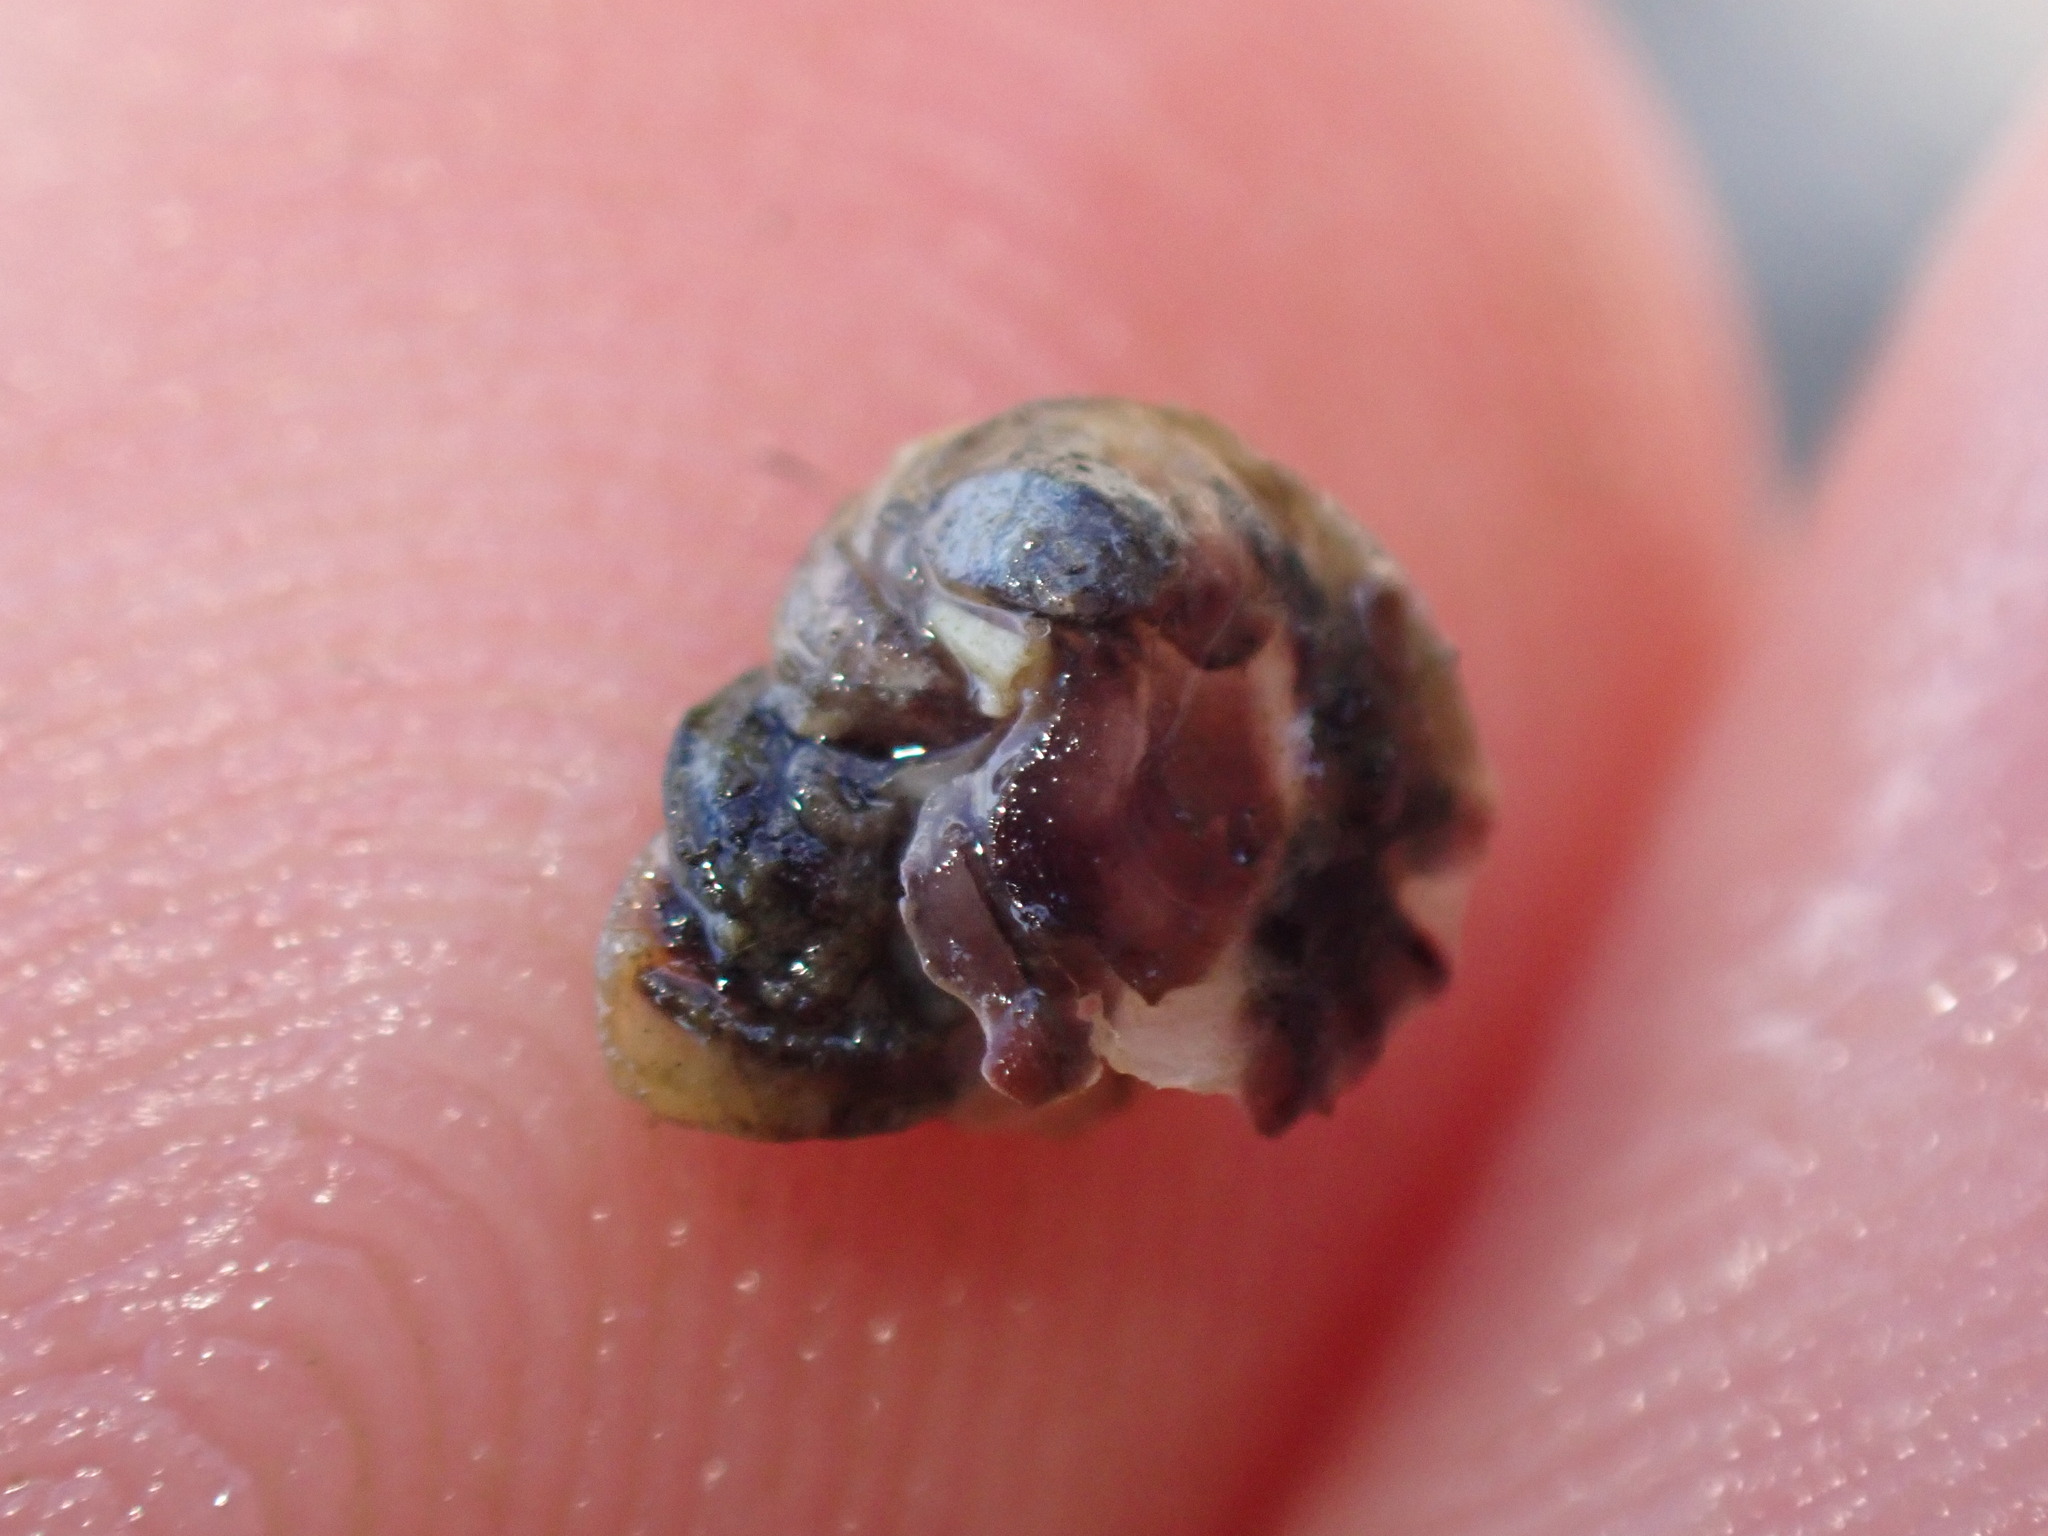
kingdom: Animalia
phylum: Mollusca
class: Gastropoda
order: Littorinimorpha
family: Littorinidae
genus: Risellopsis
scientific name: Risellopsis varia
